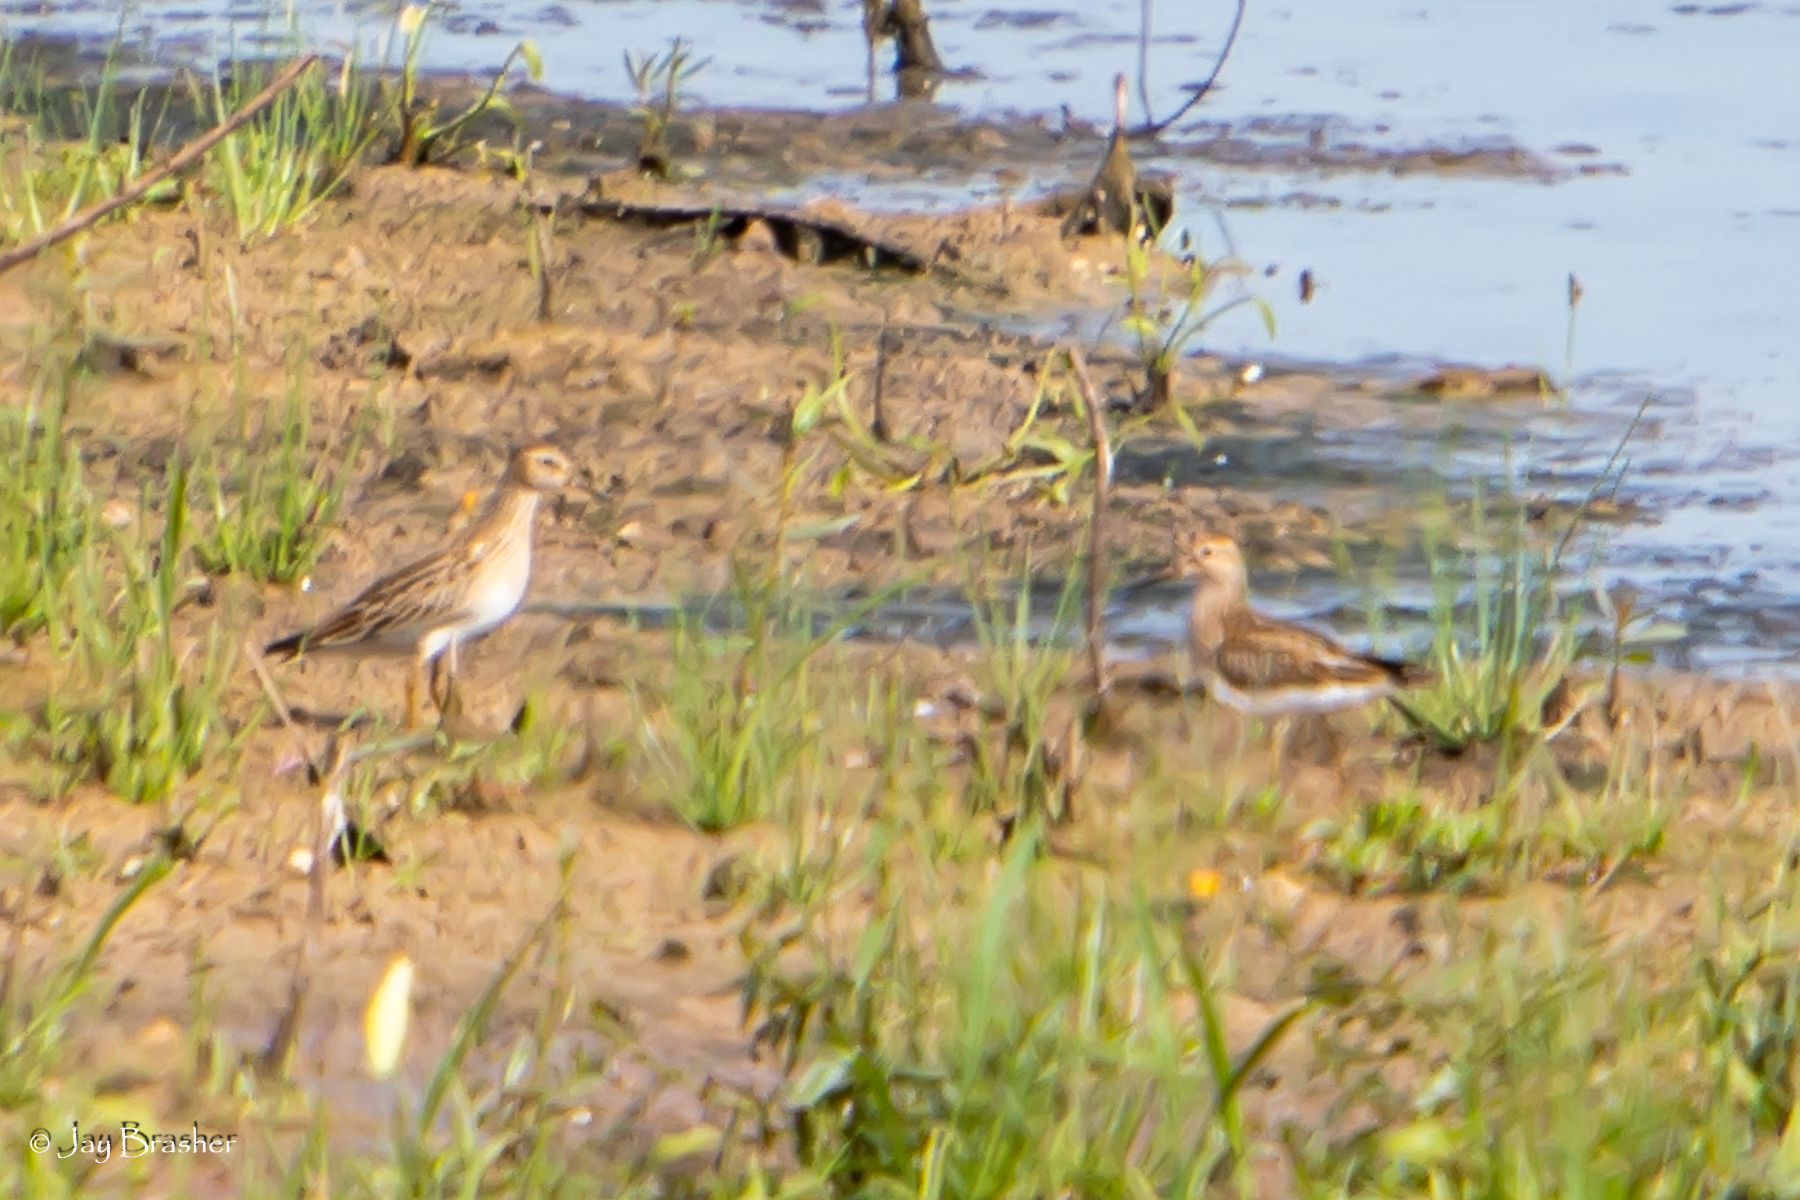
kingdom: Animalia
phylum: Chordata
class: Aves
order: Charadriiformes
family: Scolopacidae
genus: Calidris
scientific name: Calidris melanotos
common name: Pectoral sandpiper
